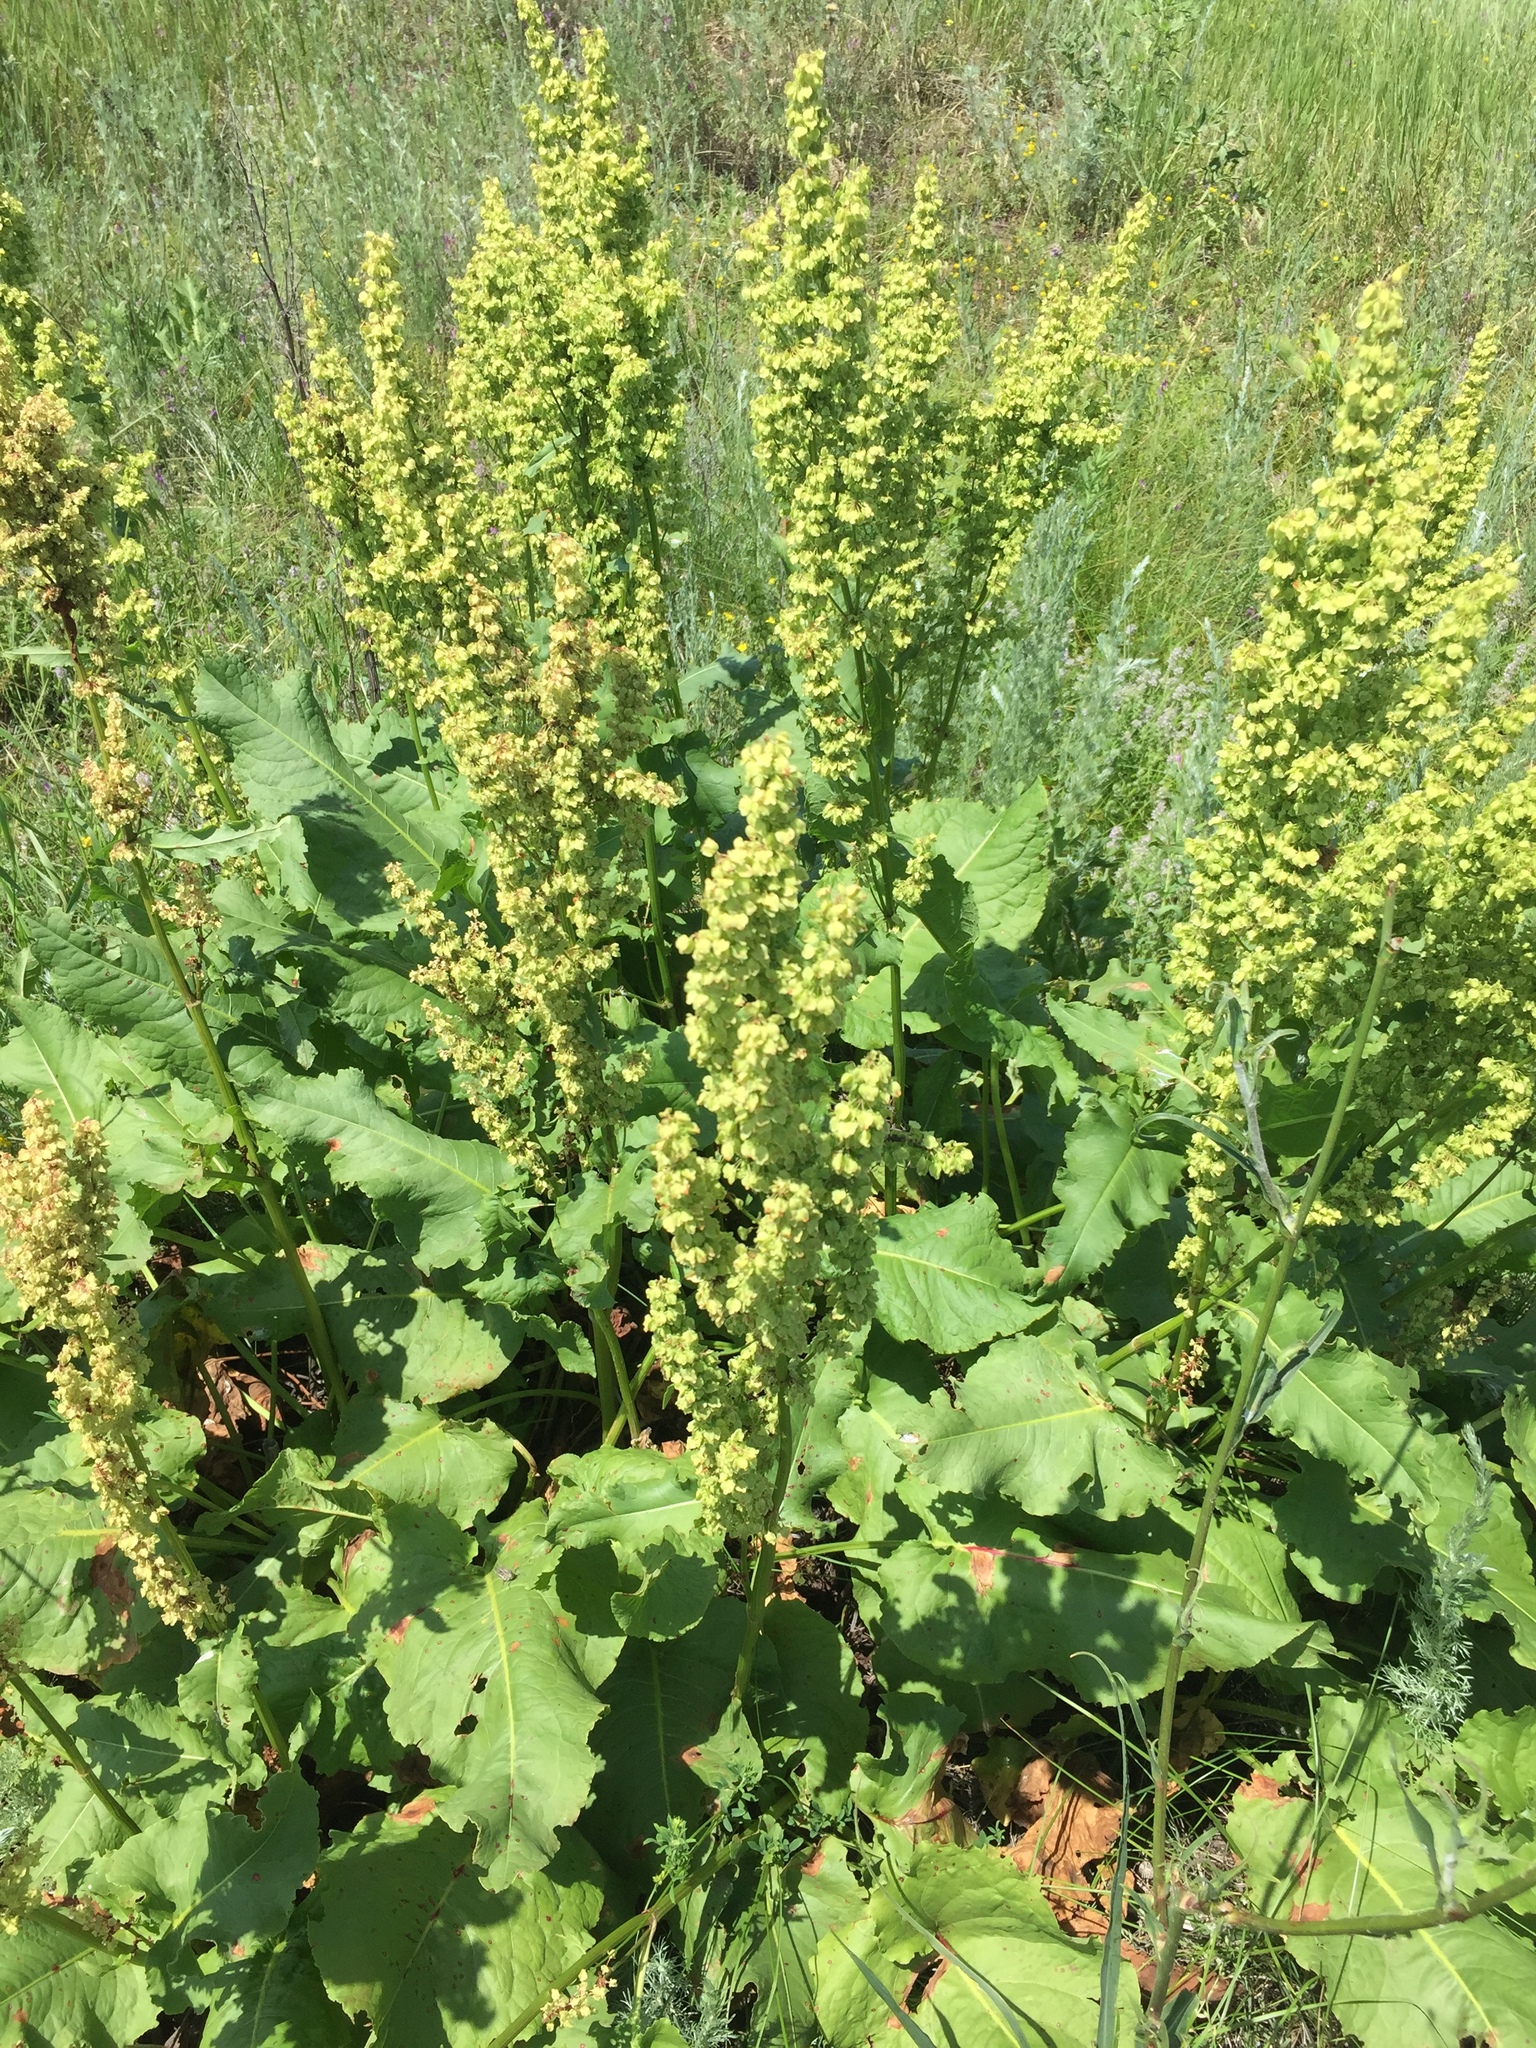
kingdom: Plantae
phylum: Tracheophyta
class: Magnoliopsida
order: Caryophyllales
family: Polygonaceae
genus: Rumex
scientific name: Rumex confertus
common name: Russian dock
